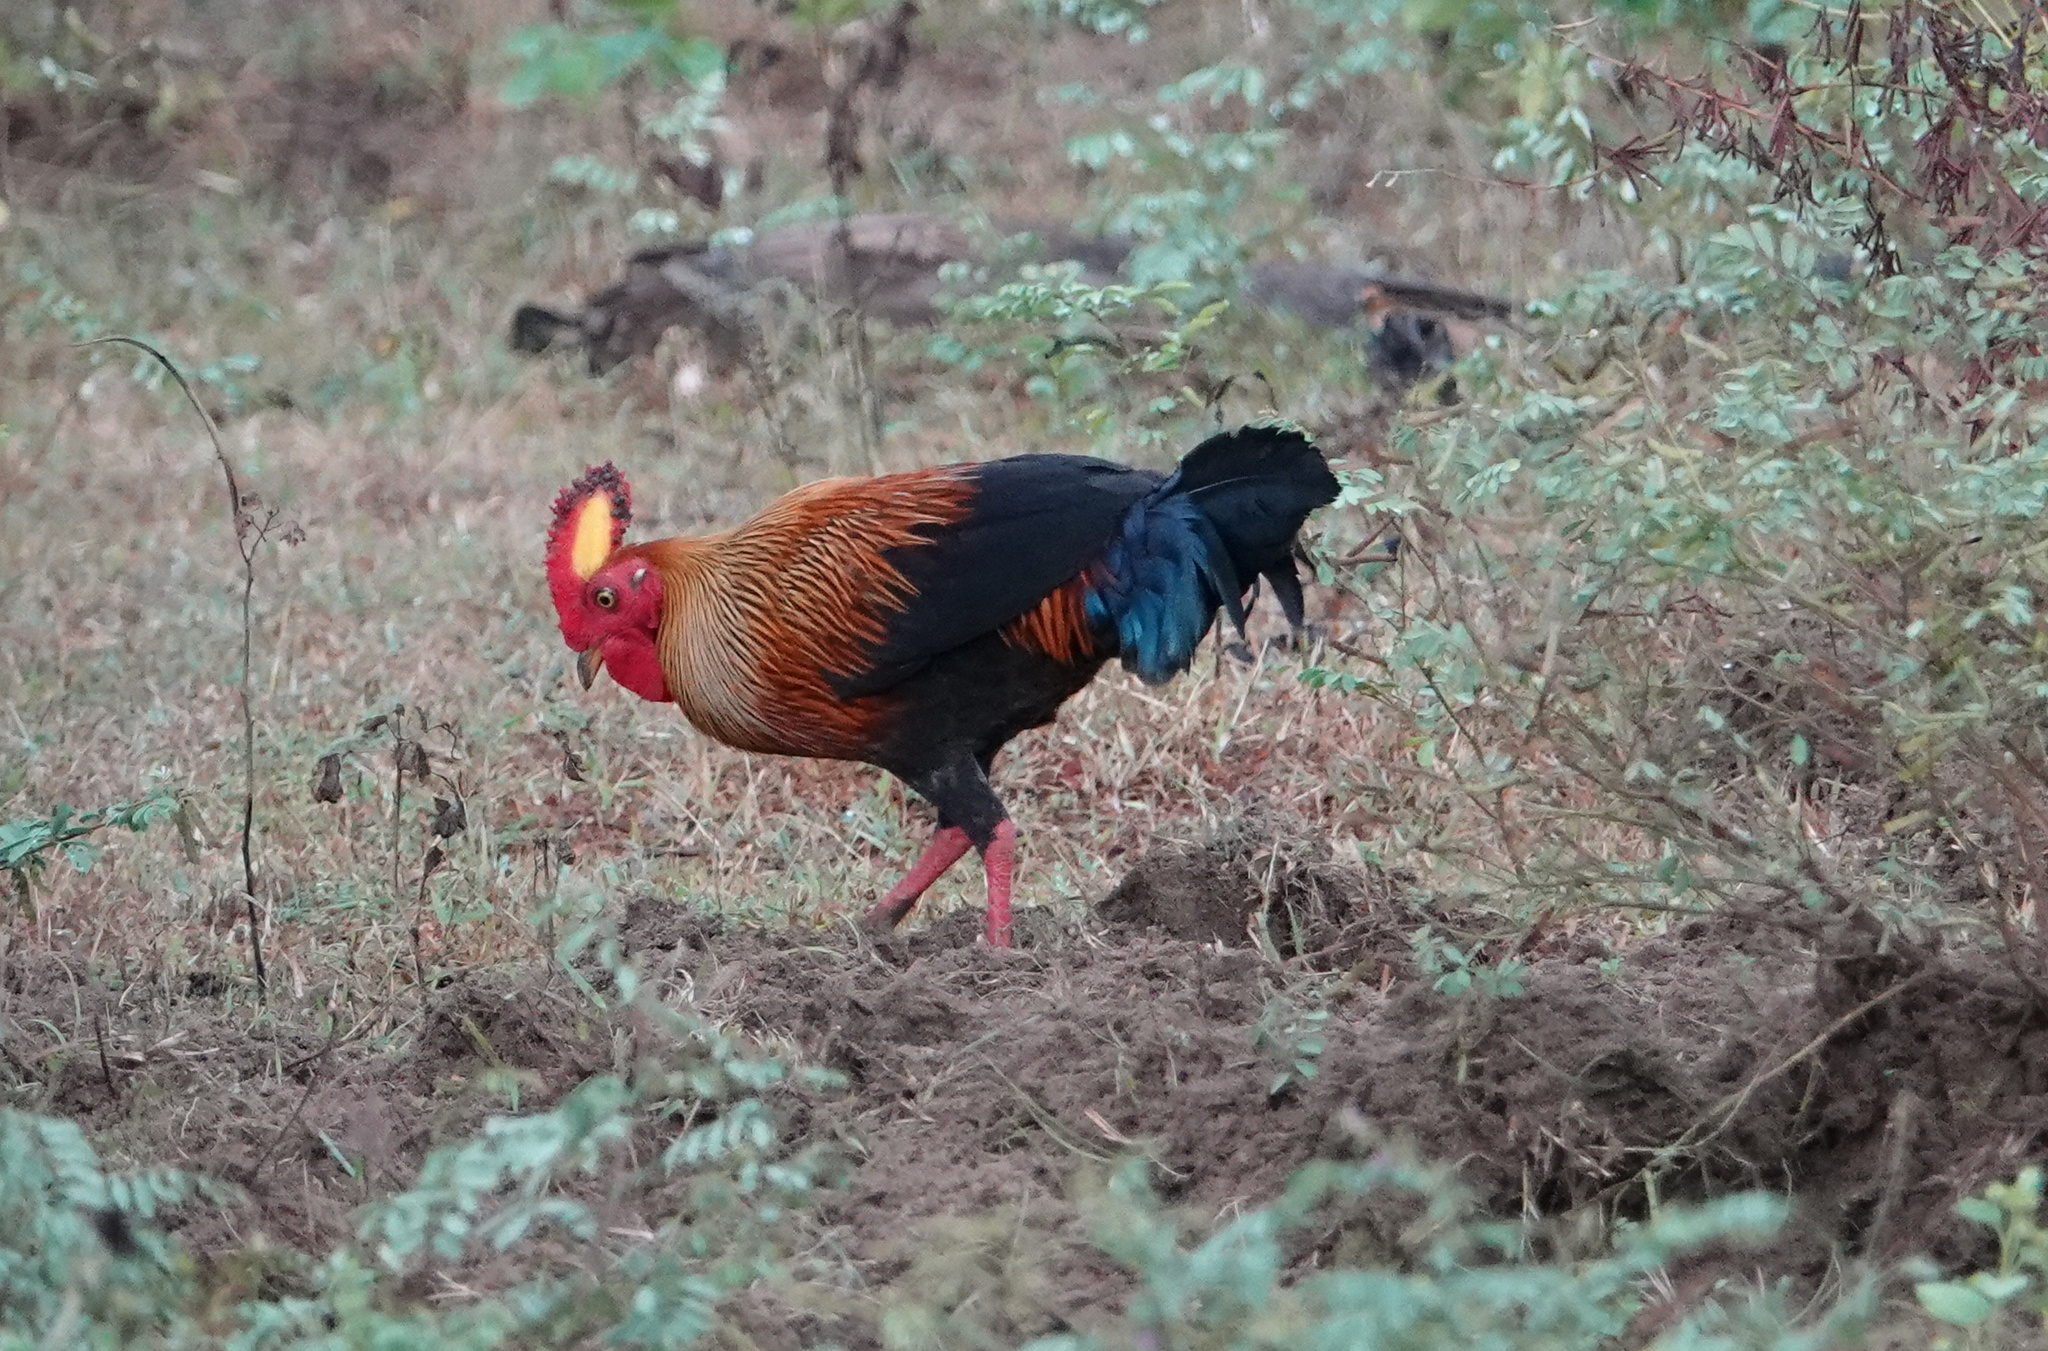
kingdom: Animalia
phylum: Chordata
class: Aves
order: Galliformes
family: Phasianidae
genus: Gallus
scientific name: Gallus lafayettii
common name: Sri lanka junglefowl
